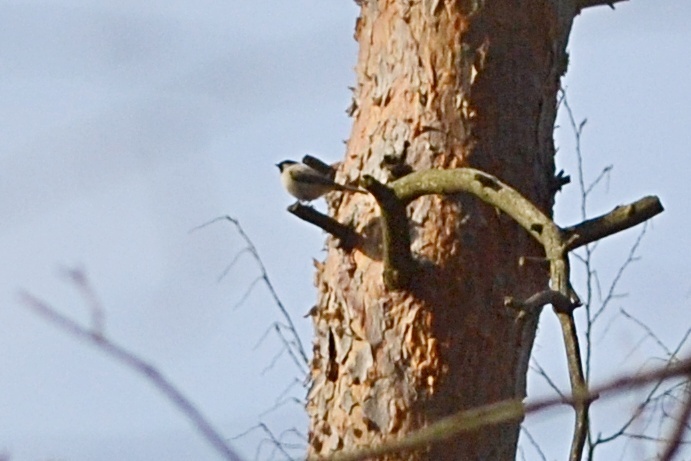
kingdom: Animalia
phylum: Chordata
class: Aves
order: Passeriformes
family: Paridae
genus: Poecile
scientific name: Poecile palustris
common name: Marsh tit
